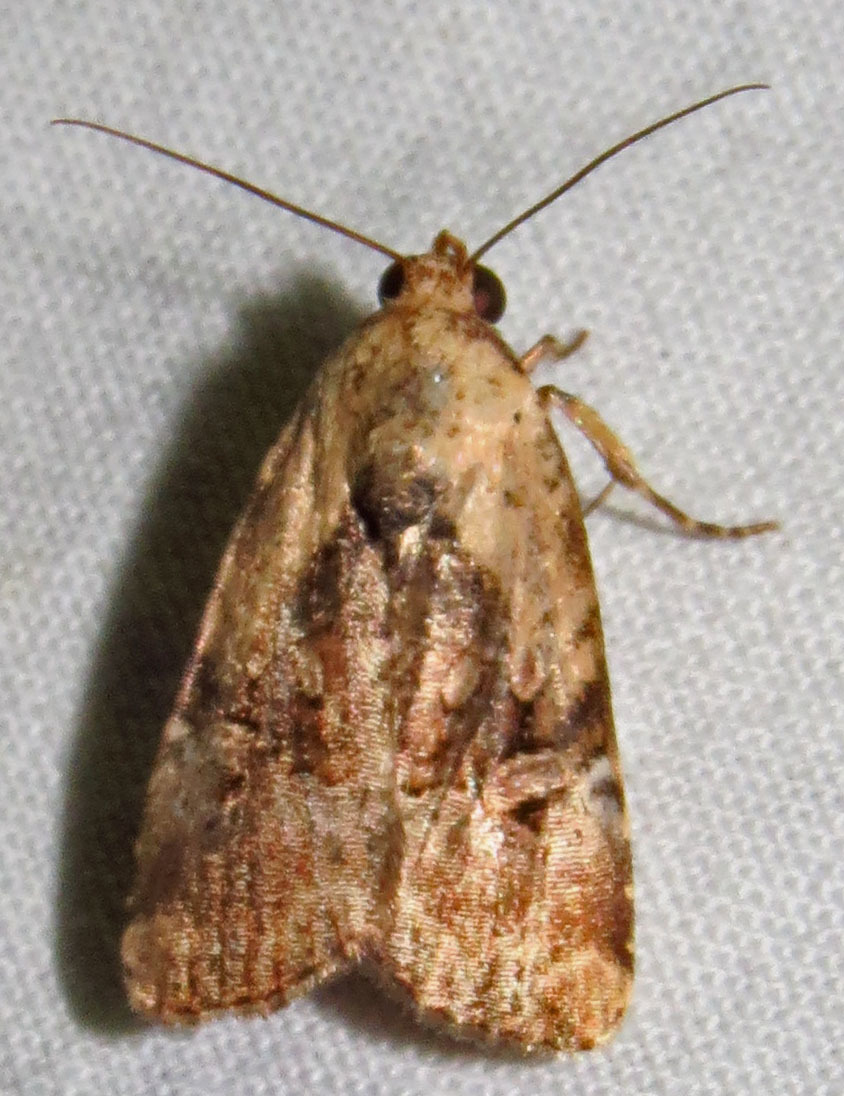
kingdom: Animalia
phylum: Arthropoda
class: Insecta
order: Lepidoptera
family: Noctuidae
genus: Elaphria
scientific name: Elaphria chalcedonia
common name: Chalcedony midget
